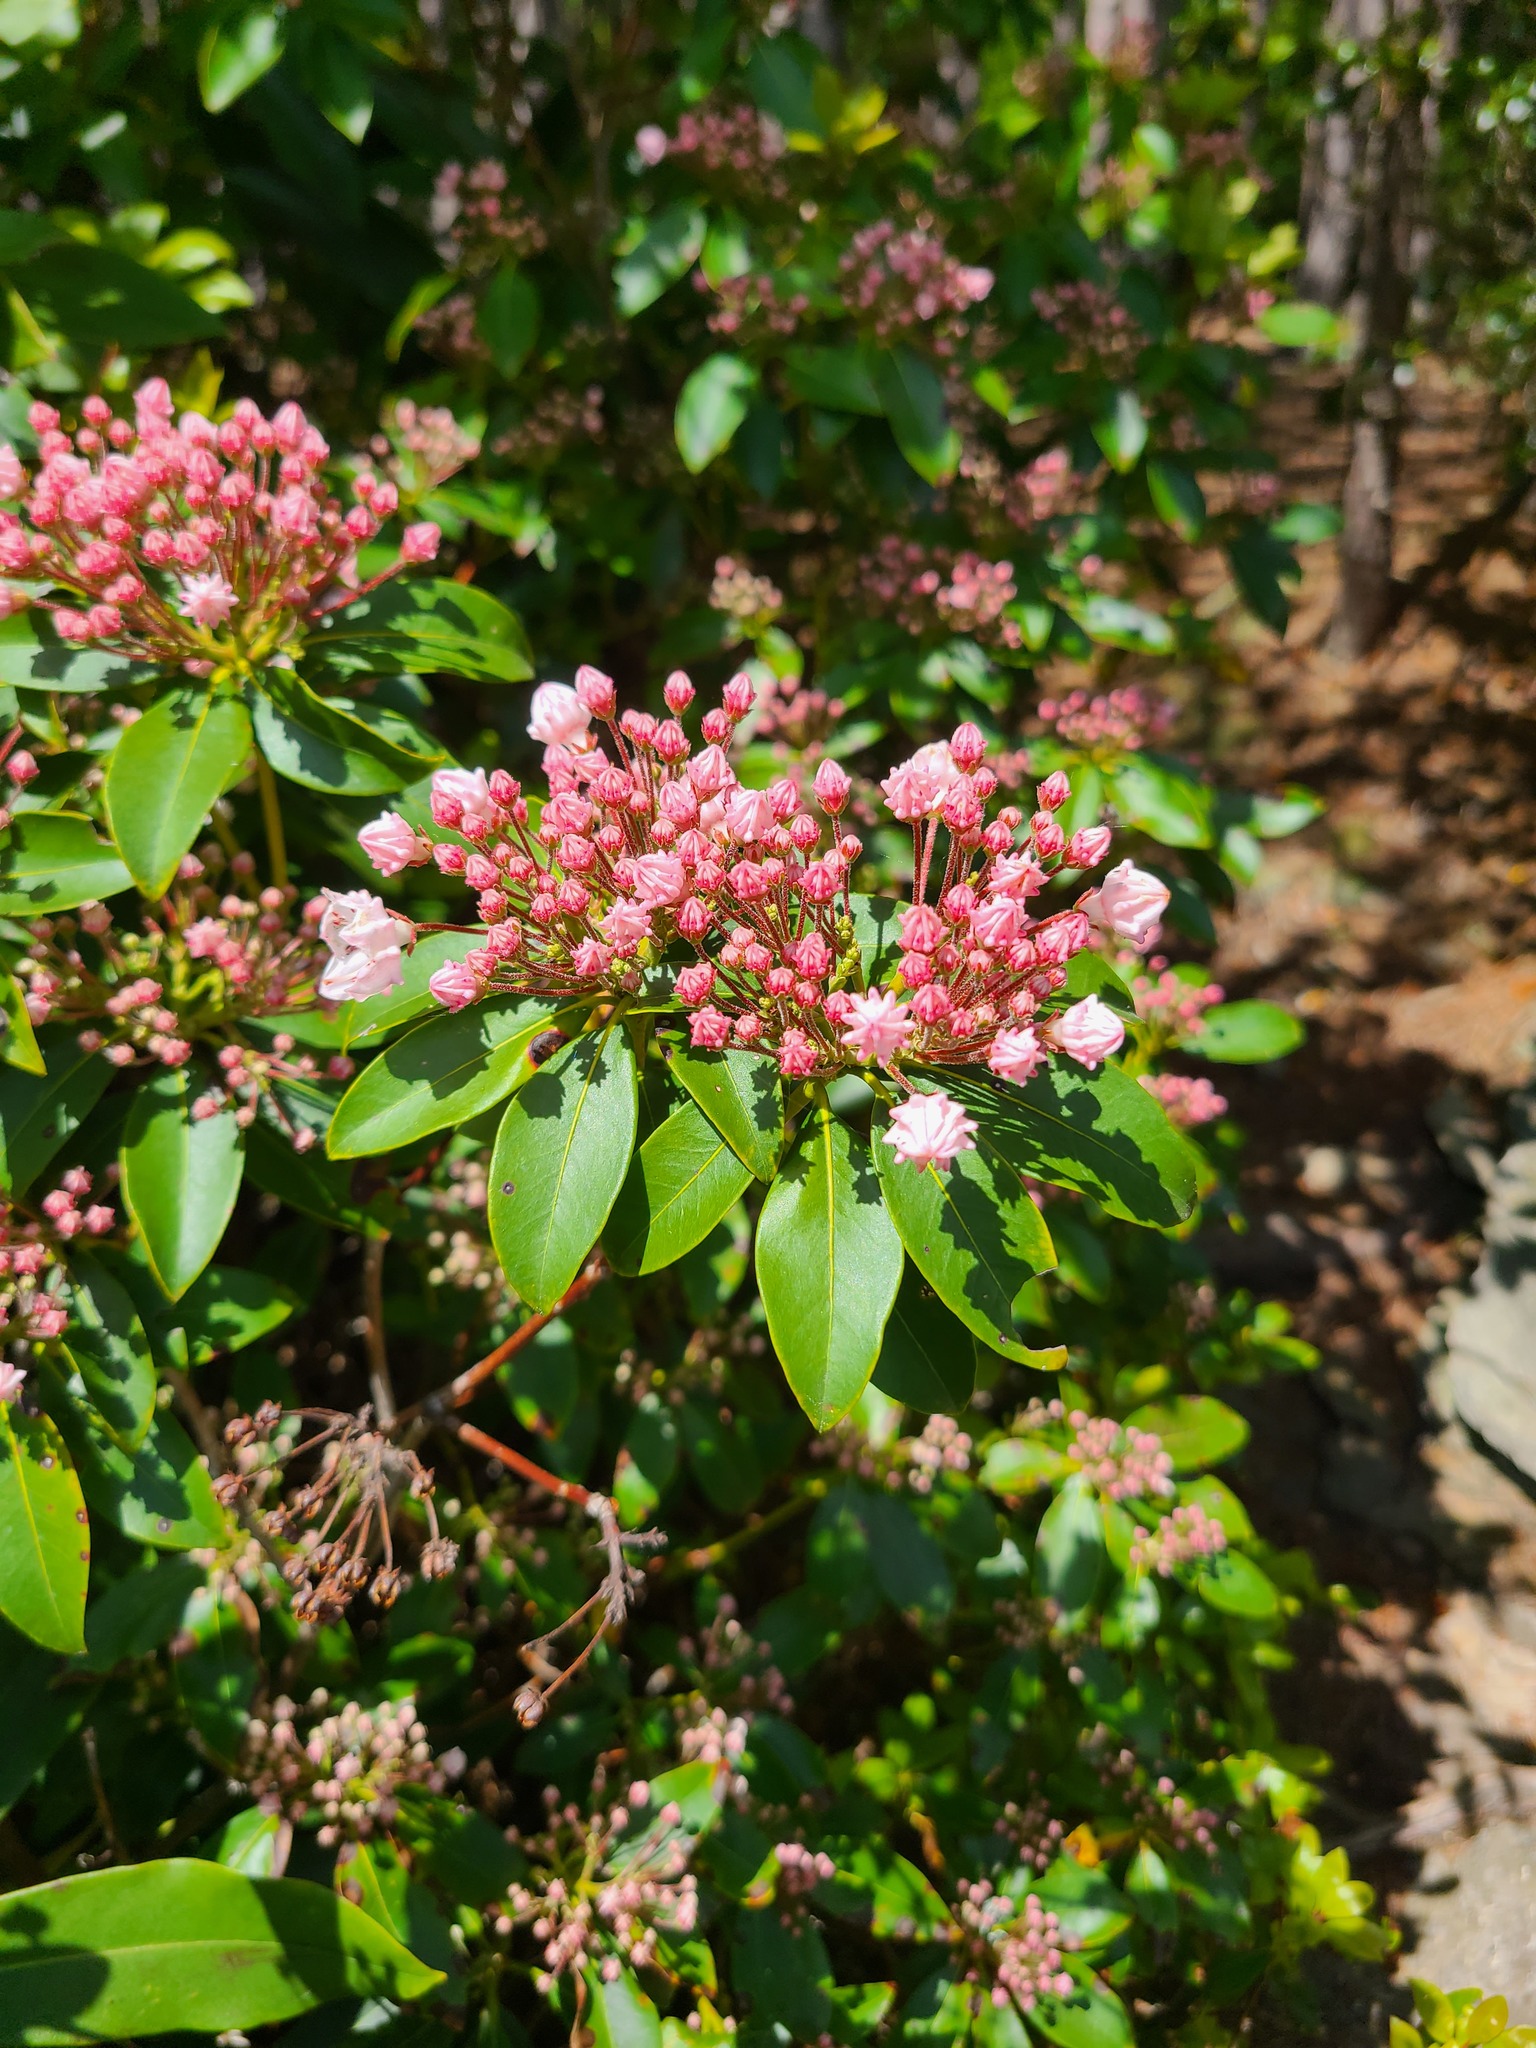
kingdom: Plantae
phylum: Tracheophyta
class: Magnoliopsida
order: Ericales
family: Ericaceae
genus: Kalmia
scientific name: Kalmia latifolia
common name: Mountain-laurel
